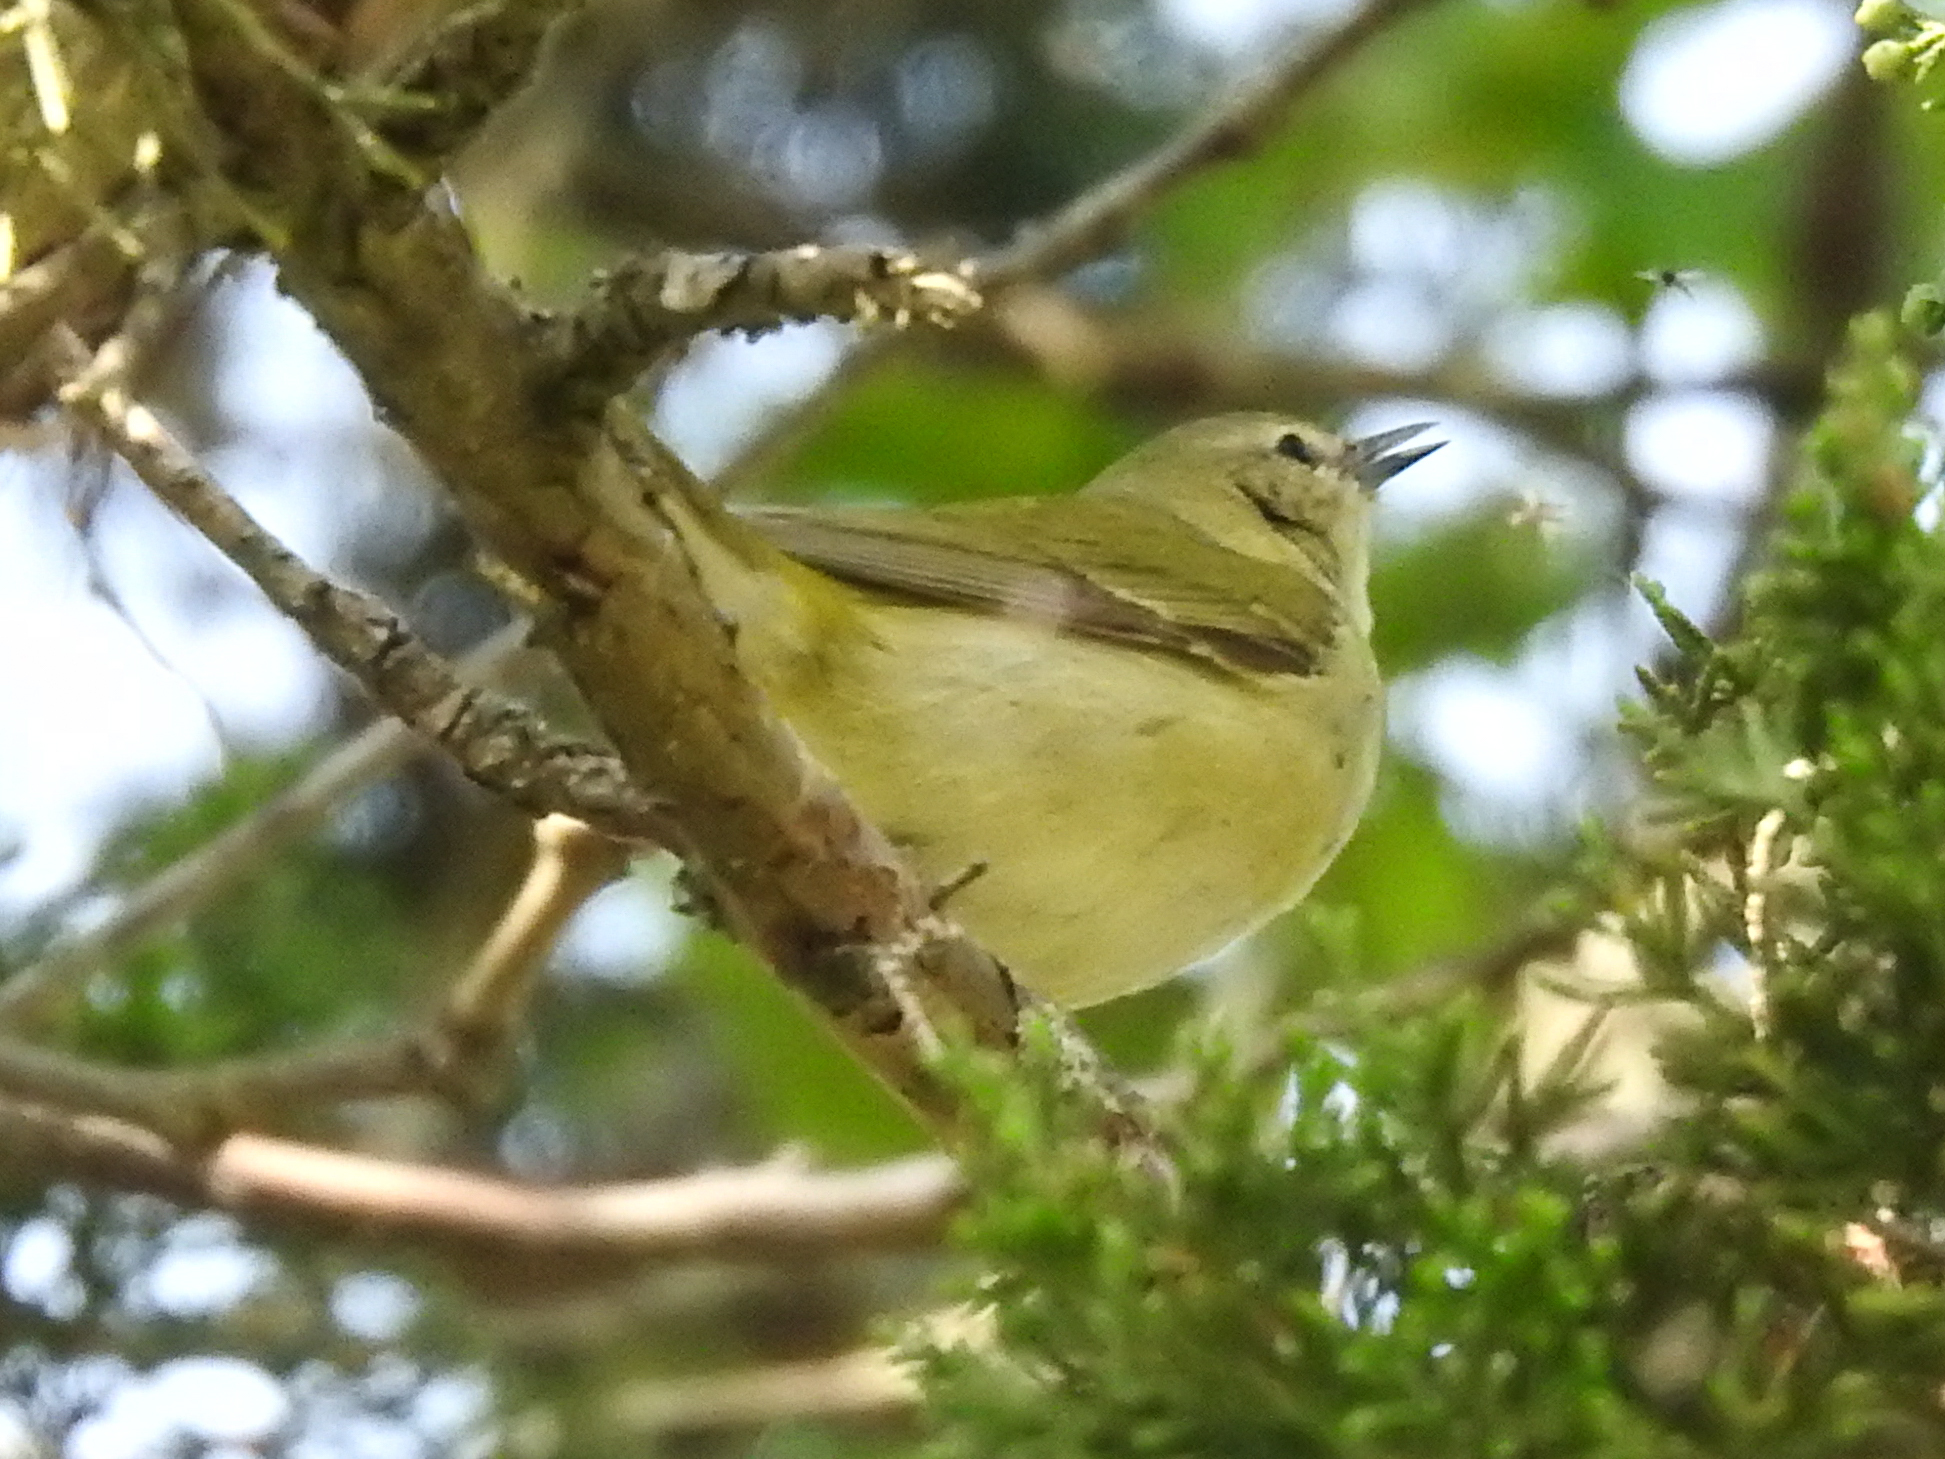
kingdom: Animalia
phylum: Chordata
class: Aves
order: Passeriformes
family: Parulidae
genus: Leiothlypis
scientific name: Leiothlypis peregrina
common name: Tennessee warbler
